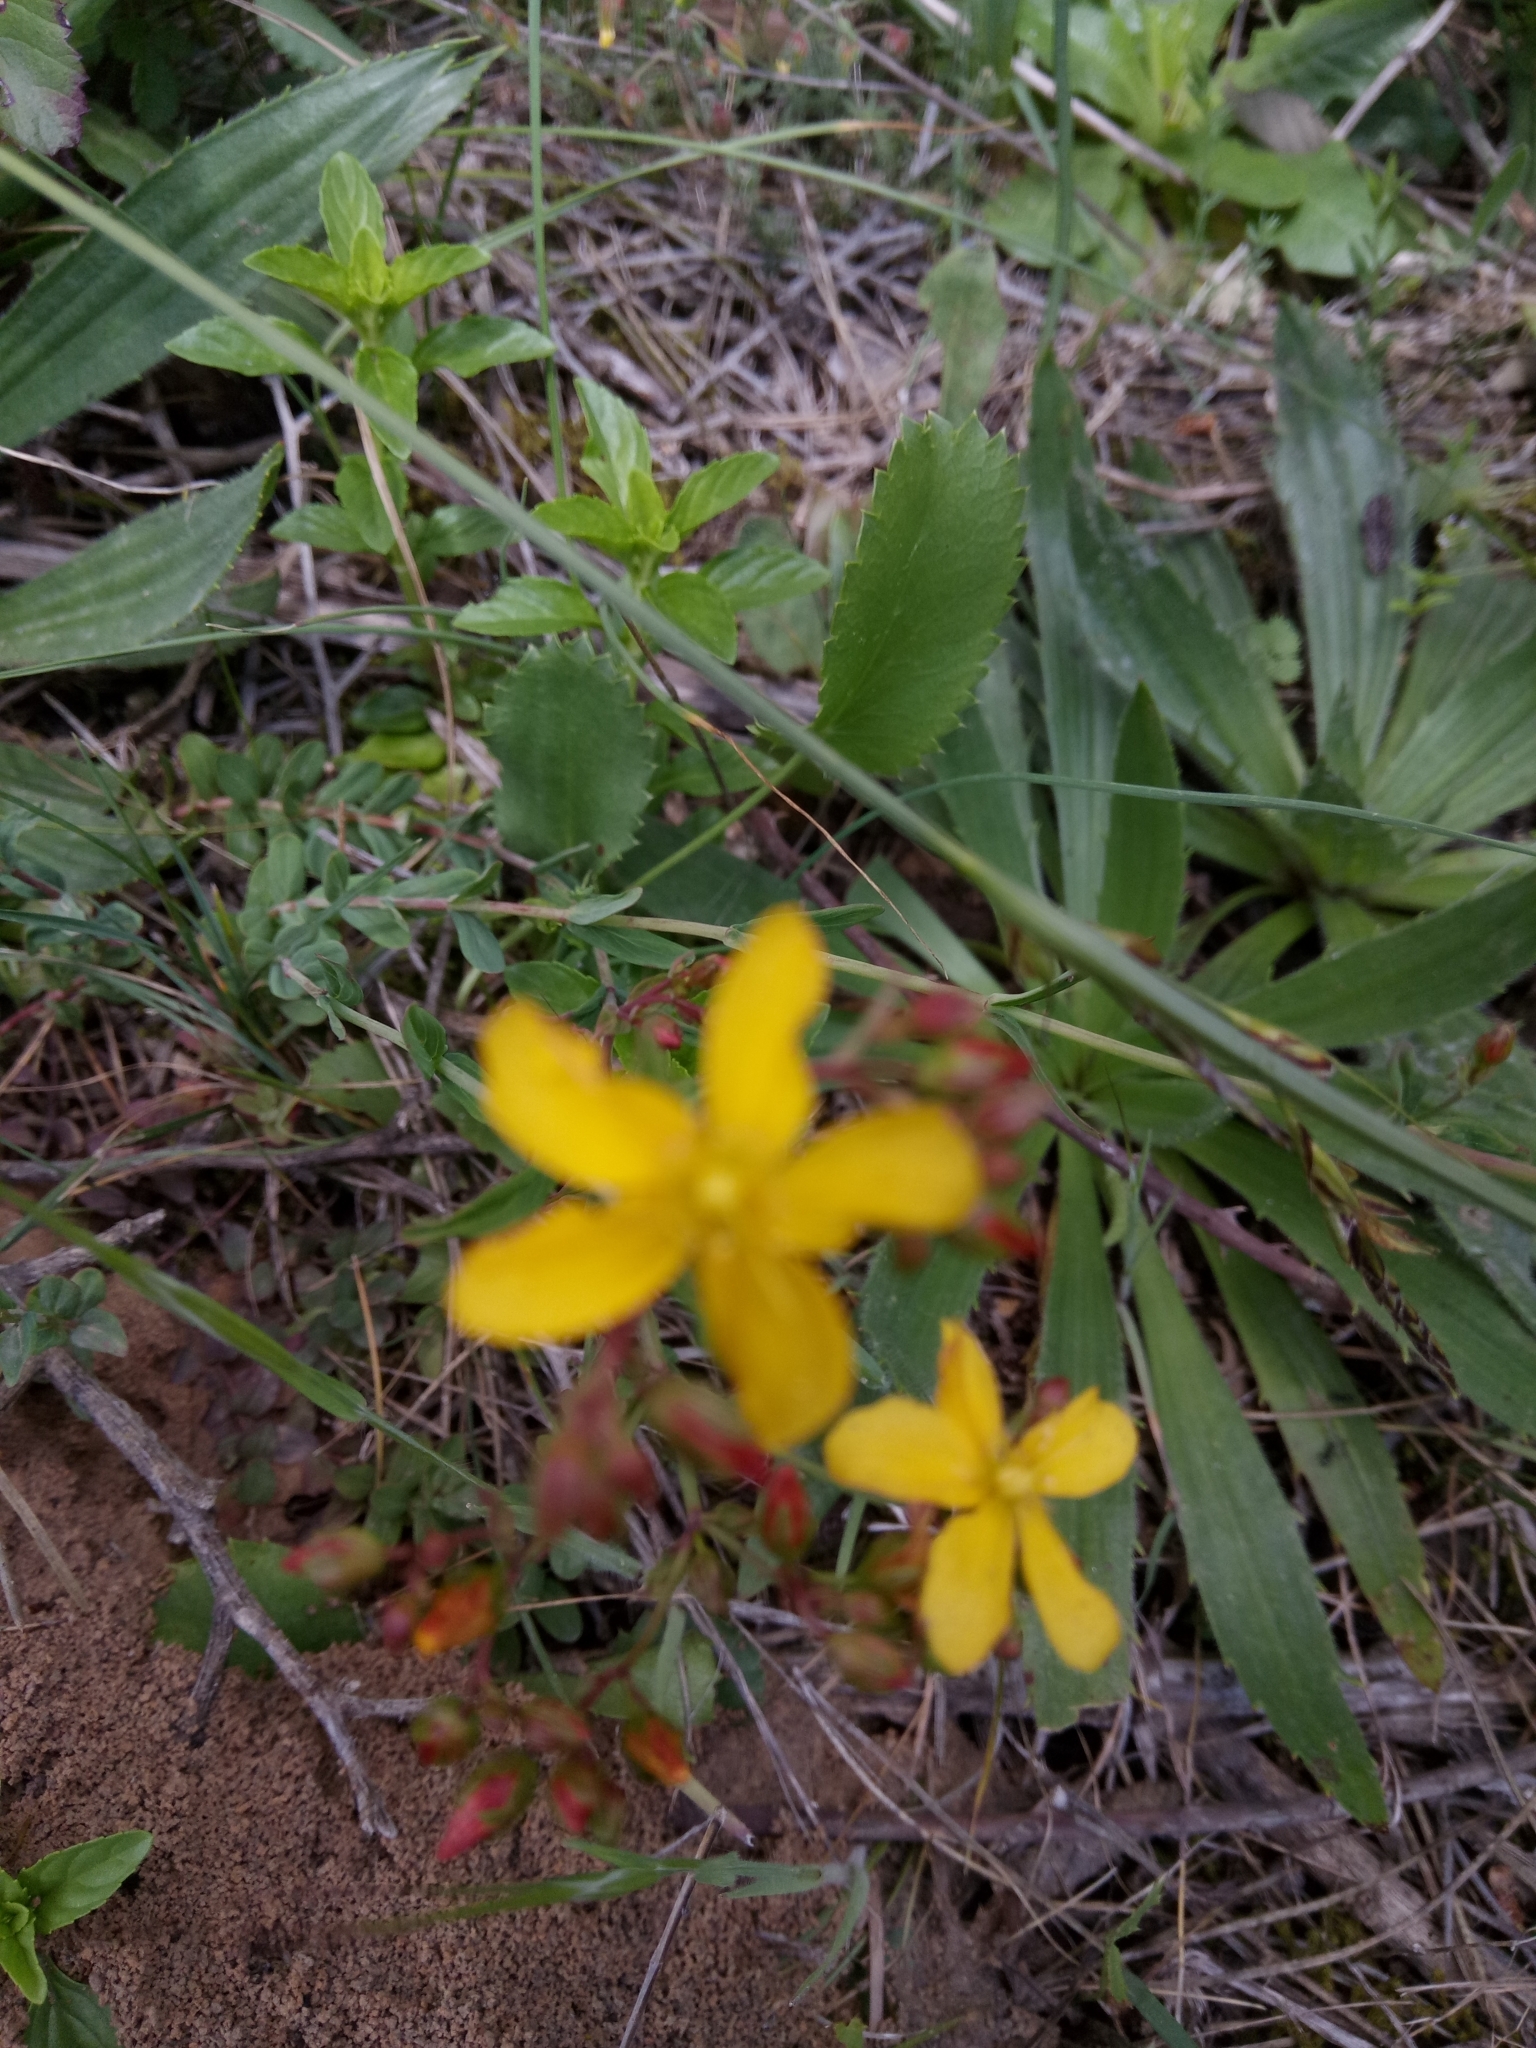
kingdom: Plantae
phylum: Tracheophyta
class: Magnoliopsida
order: Malpighiales
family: Hypericaceae
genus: Hypericum
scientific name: Hypericum australe
